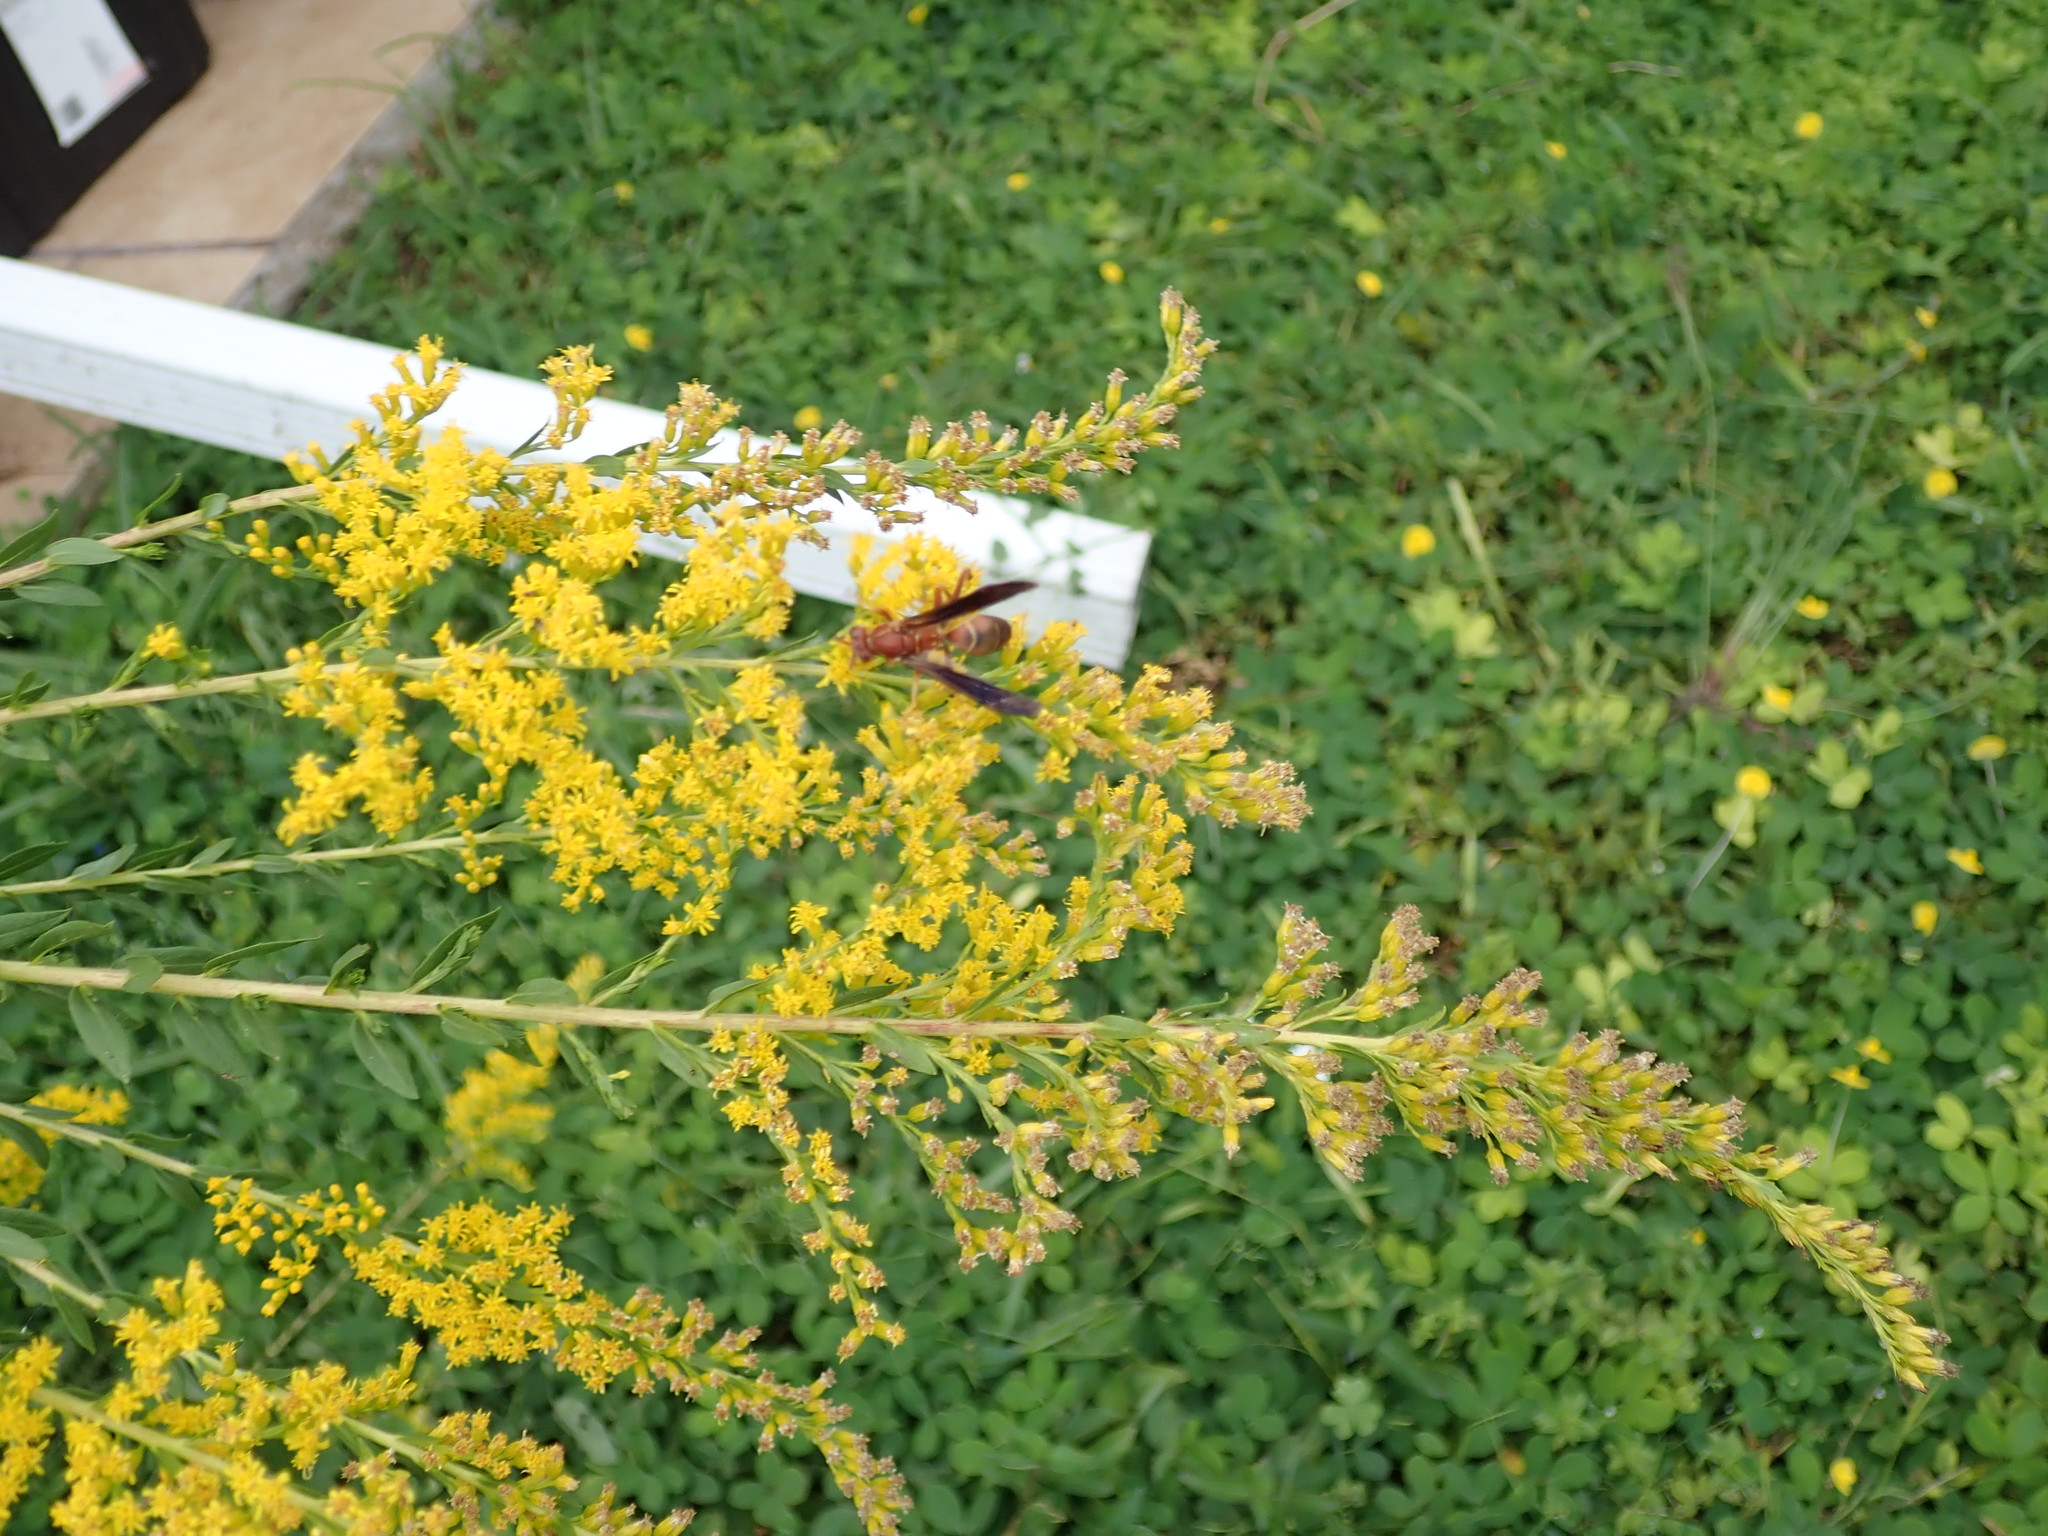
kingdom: Animalia
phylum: Arthropoda
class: Insecta
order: Hymenoptera
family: Vespidae
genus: Fuscopolistes
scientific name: Fuscopolistes
